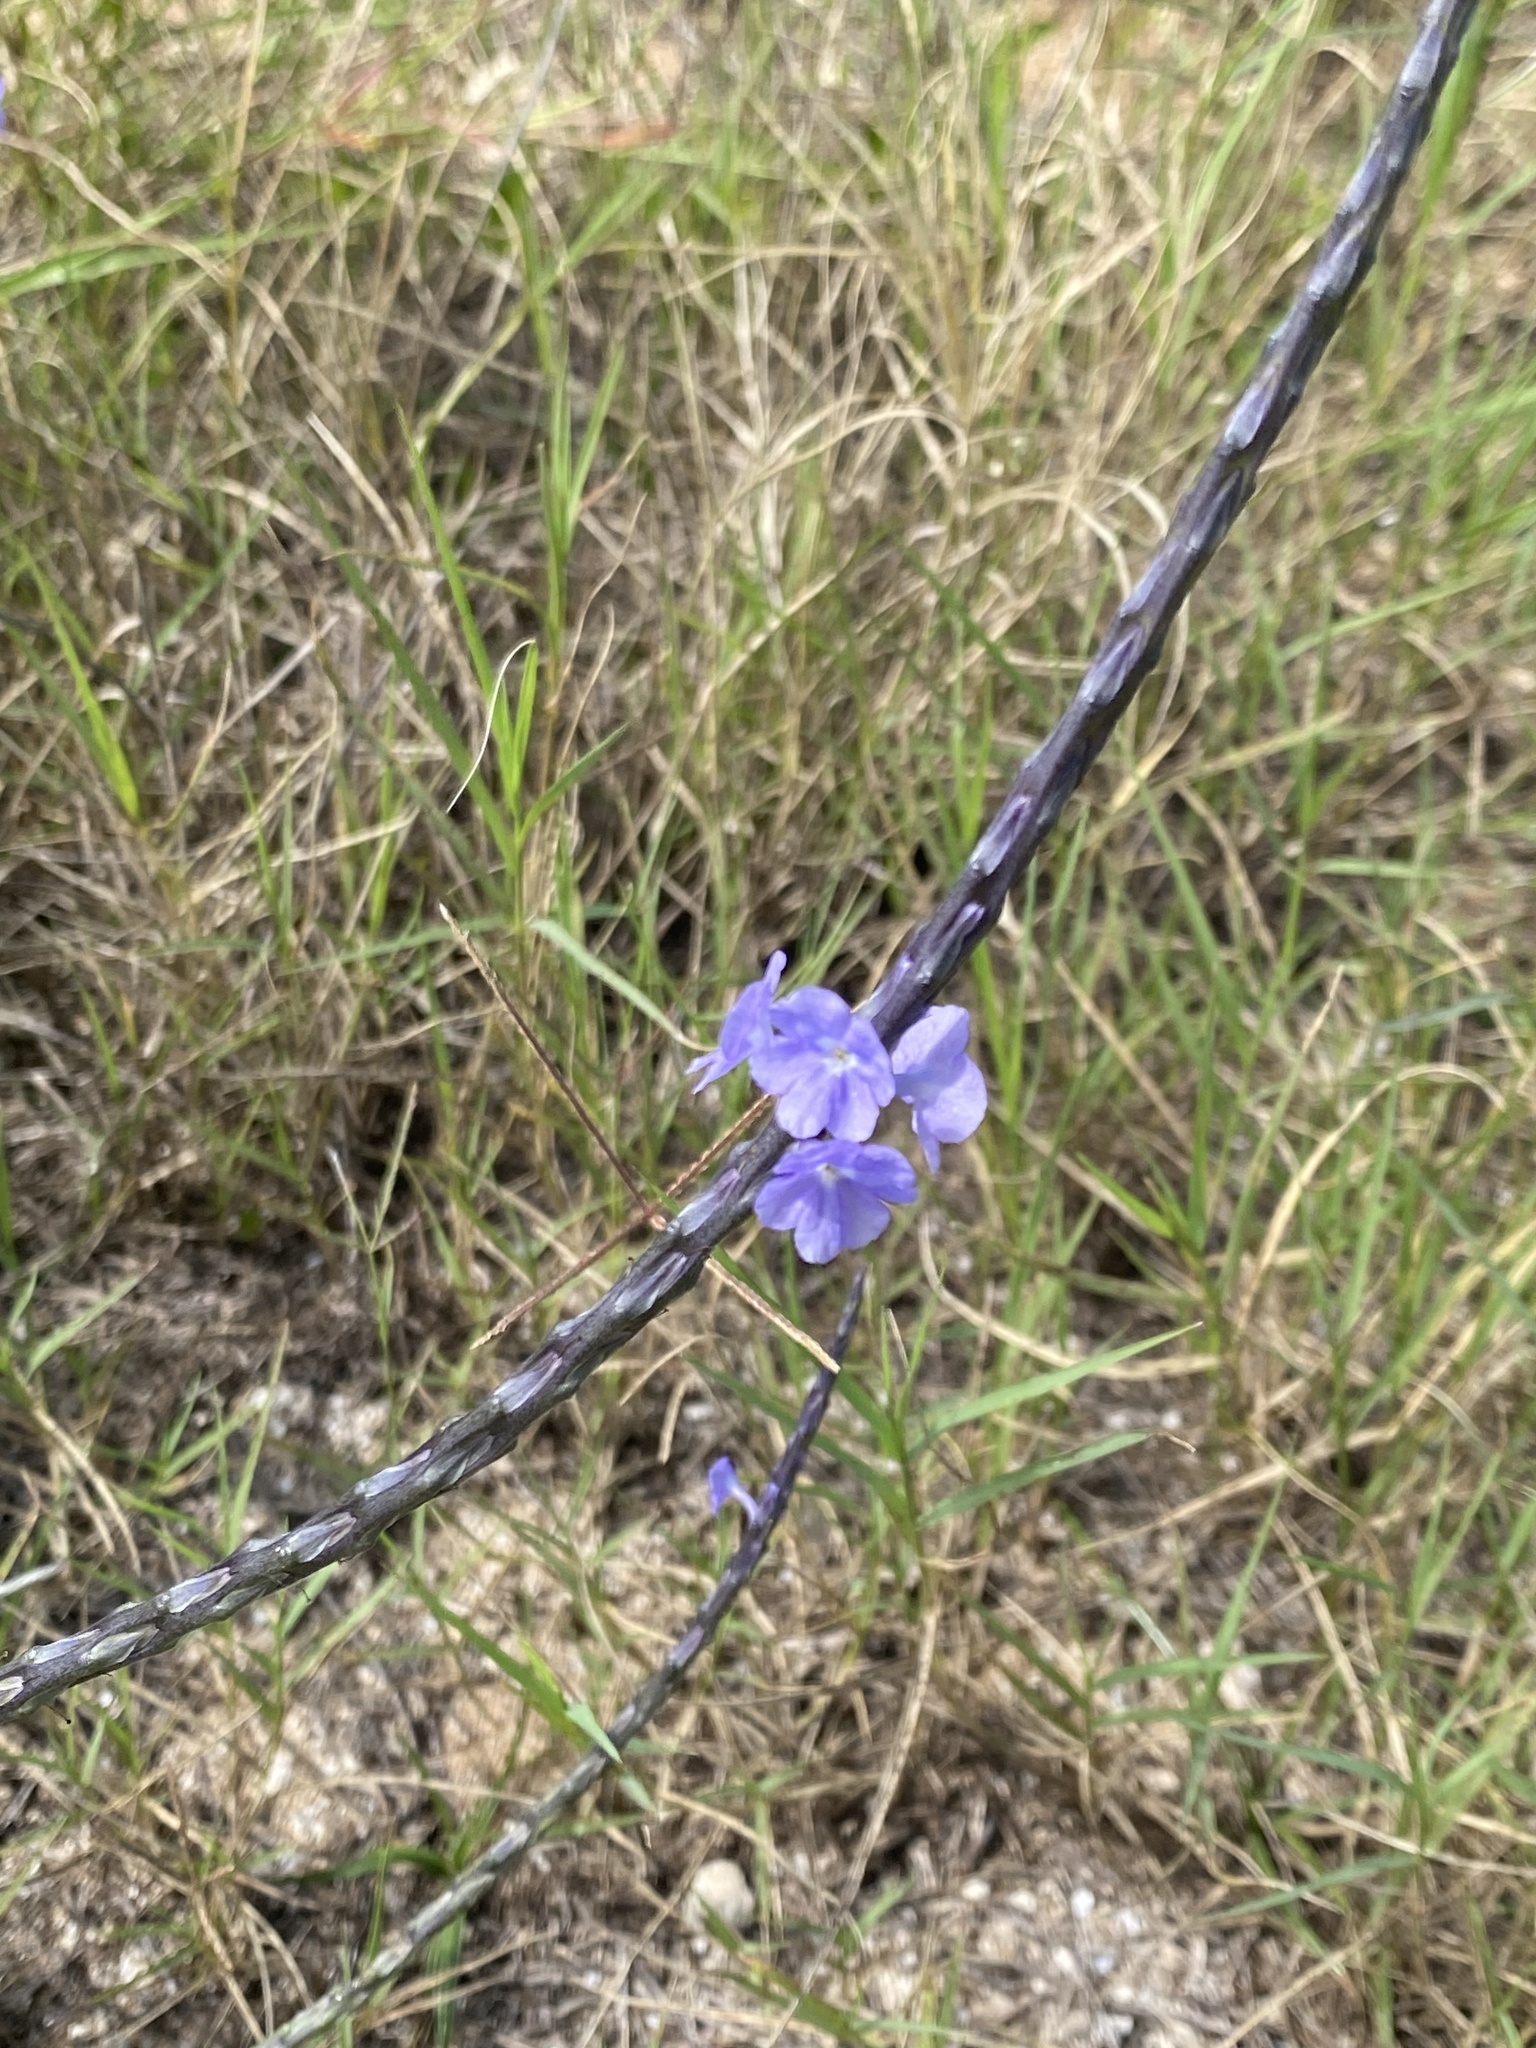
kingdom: Plantae
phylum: Tracheophyta
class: Magnoliopsida
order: Lamiales
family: Verbenaceae
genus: Stachytarpheta
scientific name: Stachytarpheta jamaicensis
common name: Light-blue snakeweed
